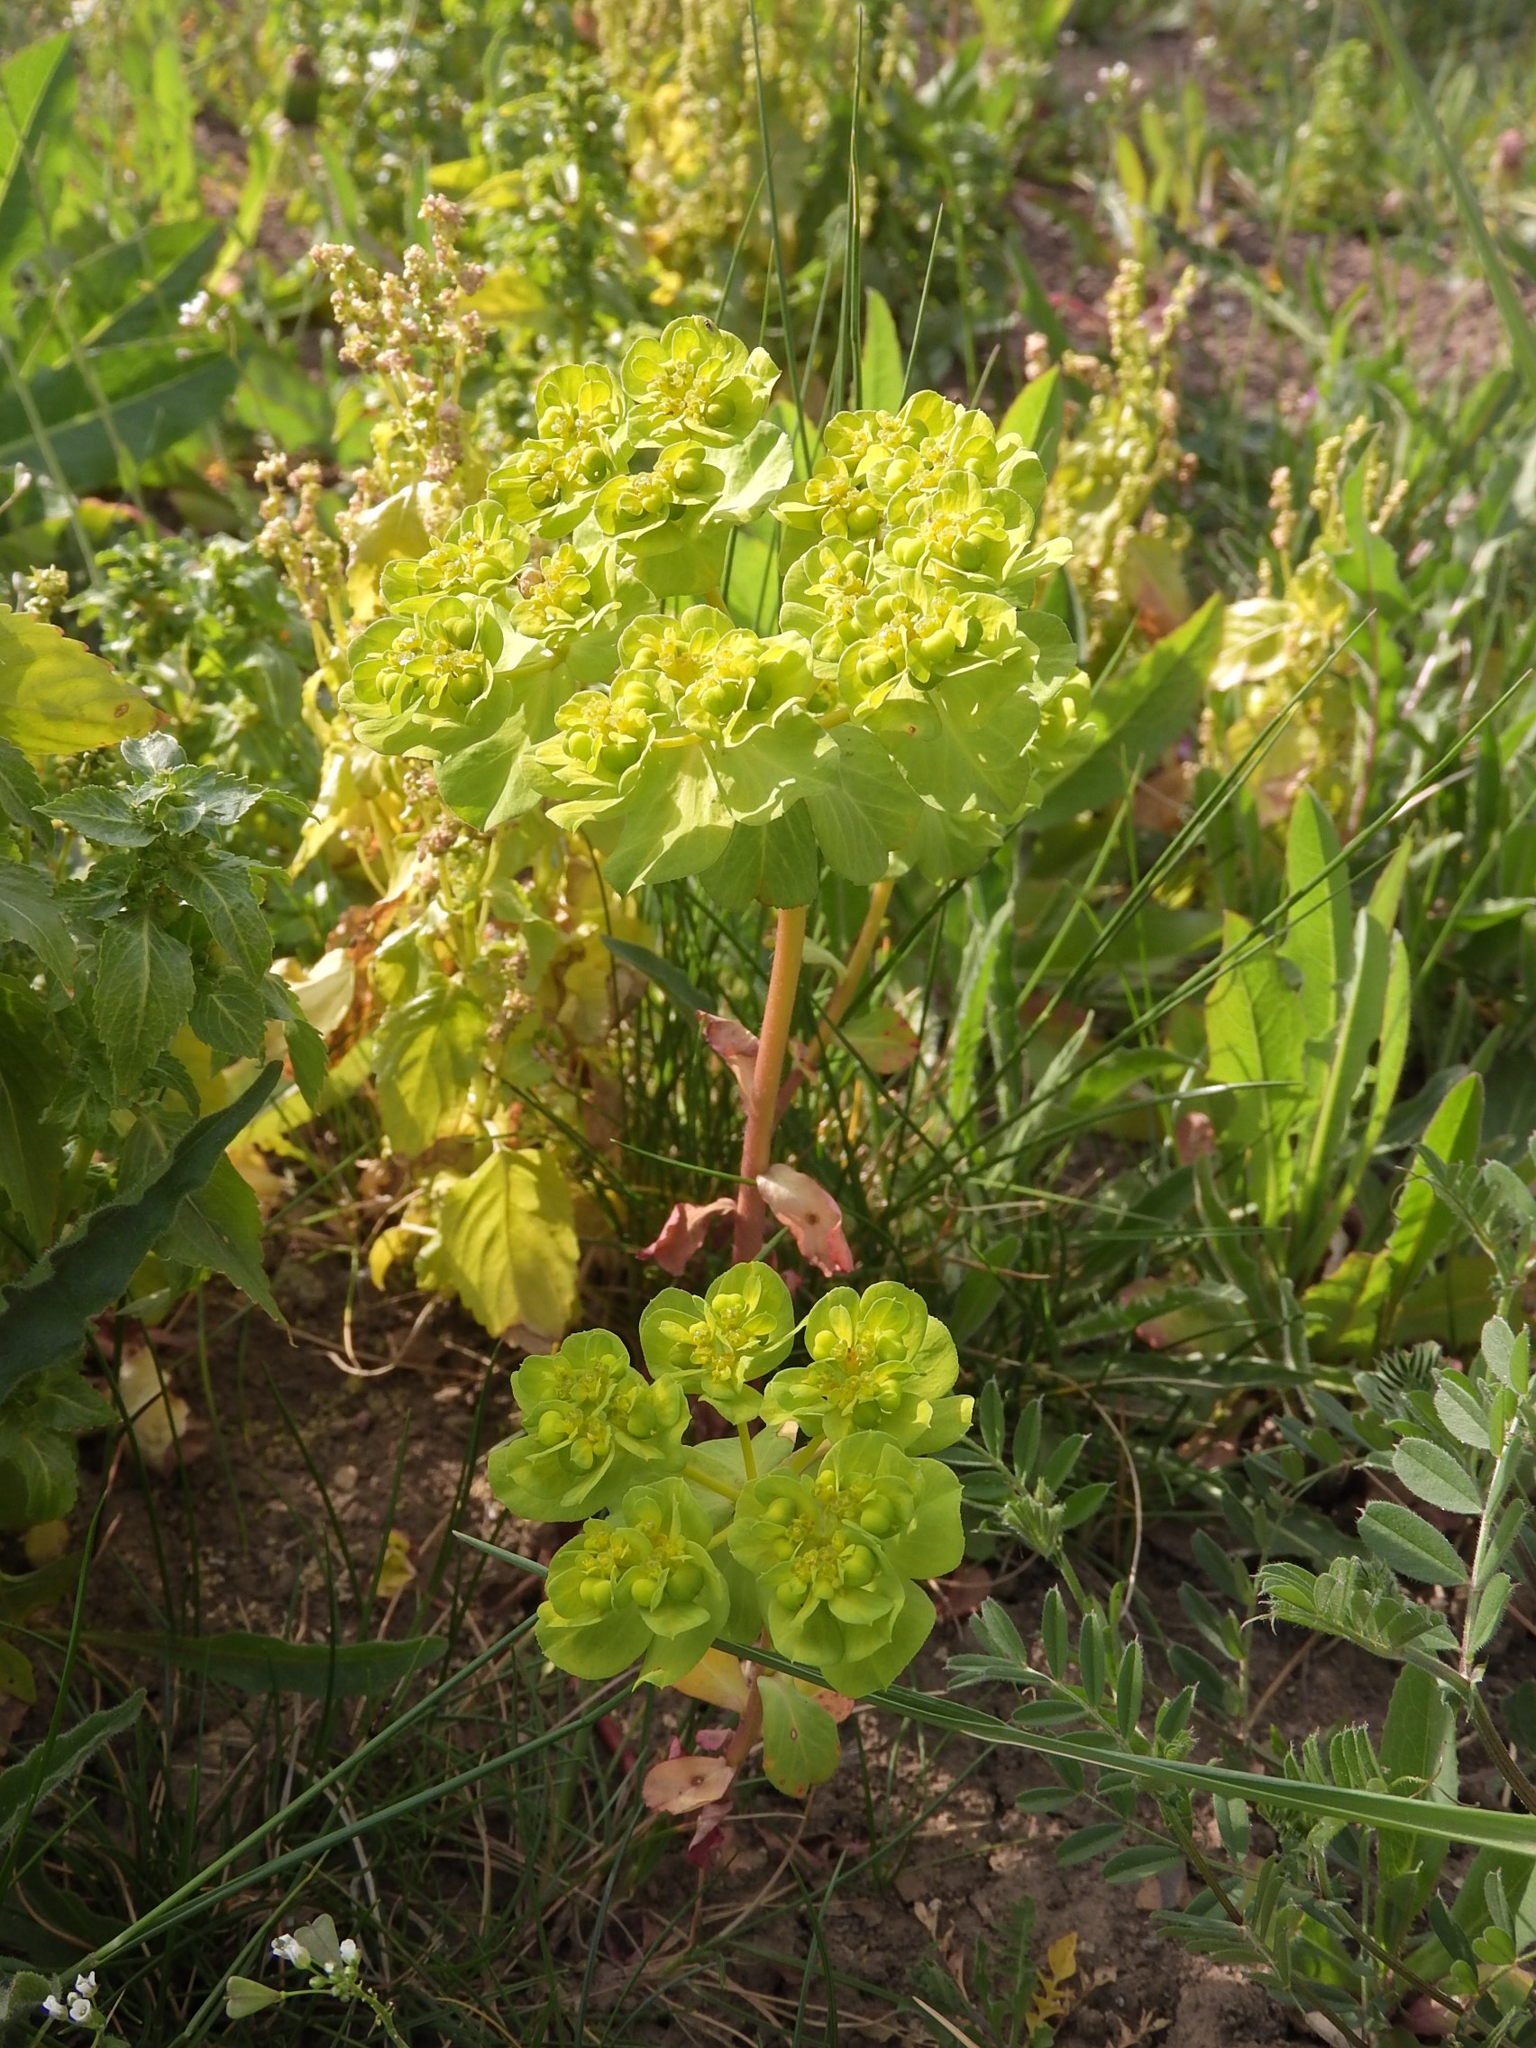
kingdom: Plantae
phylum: Tracheophyta
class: Magnoliopsida
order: Malpighiales
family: Euphorbiaceae
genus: Euphorbia
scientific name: Euphorbia helioscopia
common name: Sun spurge
